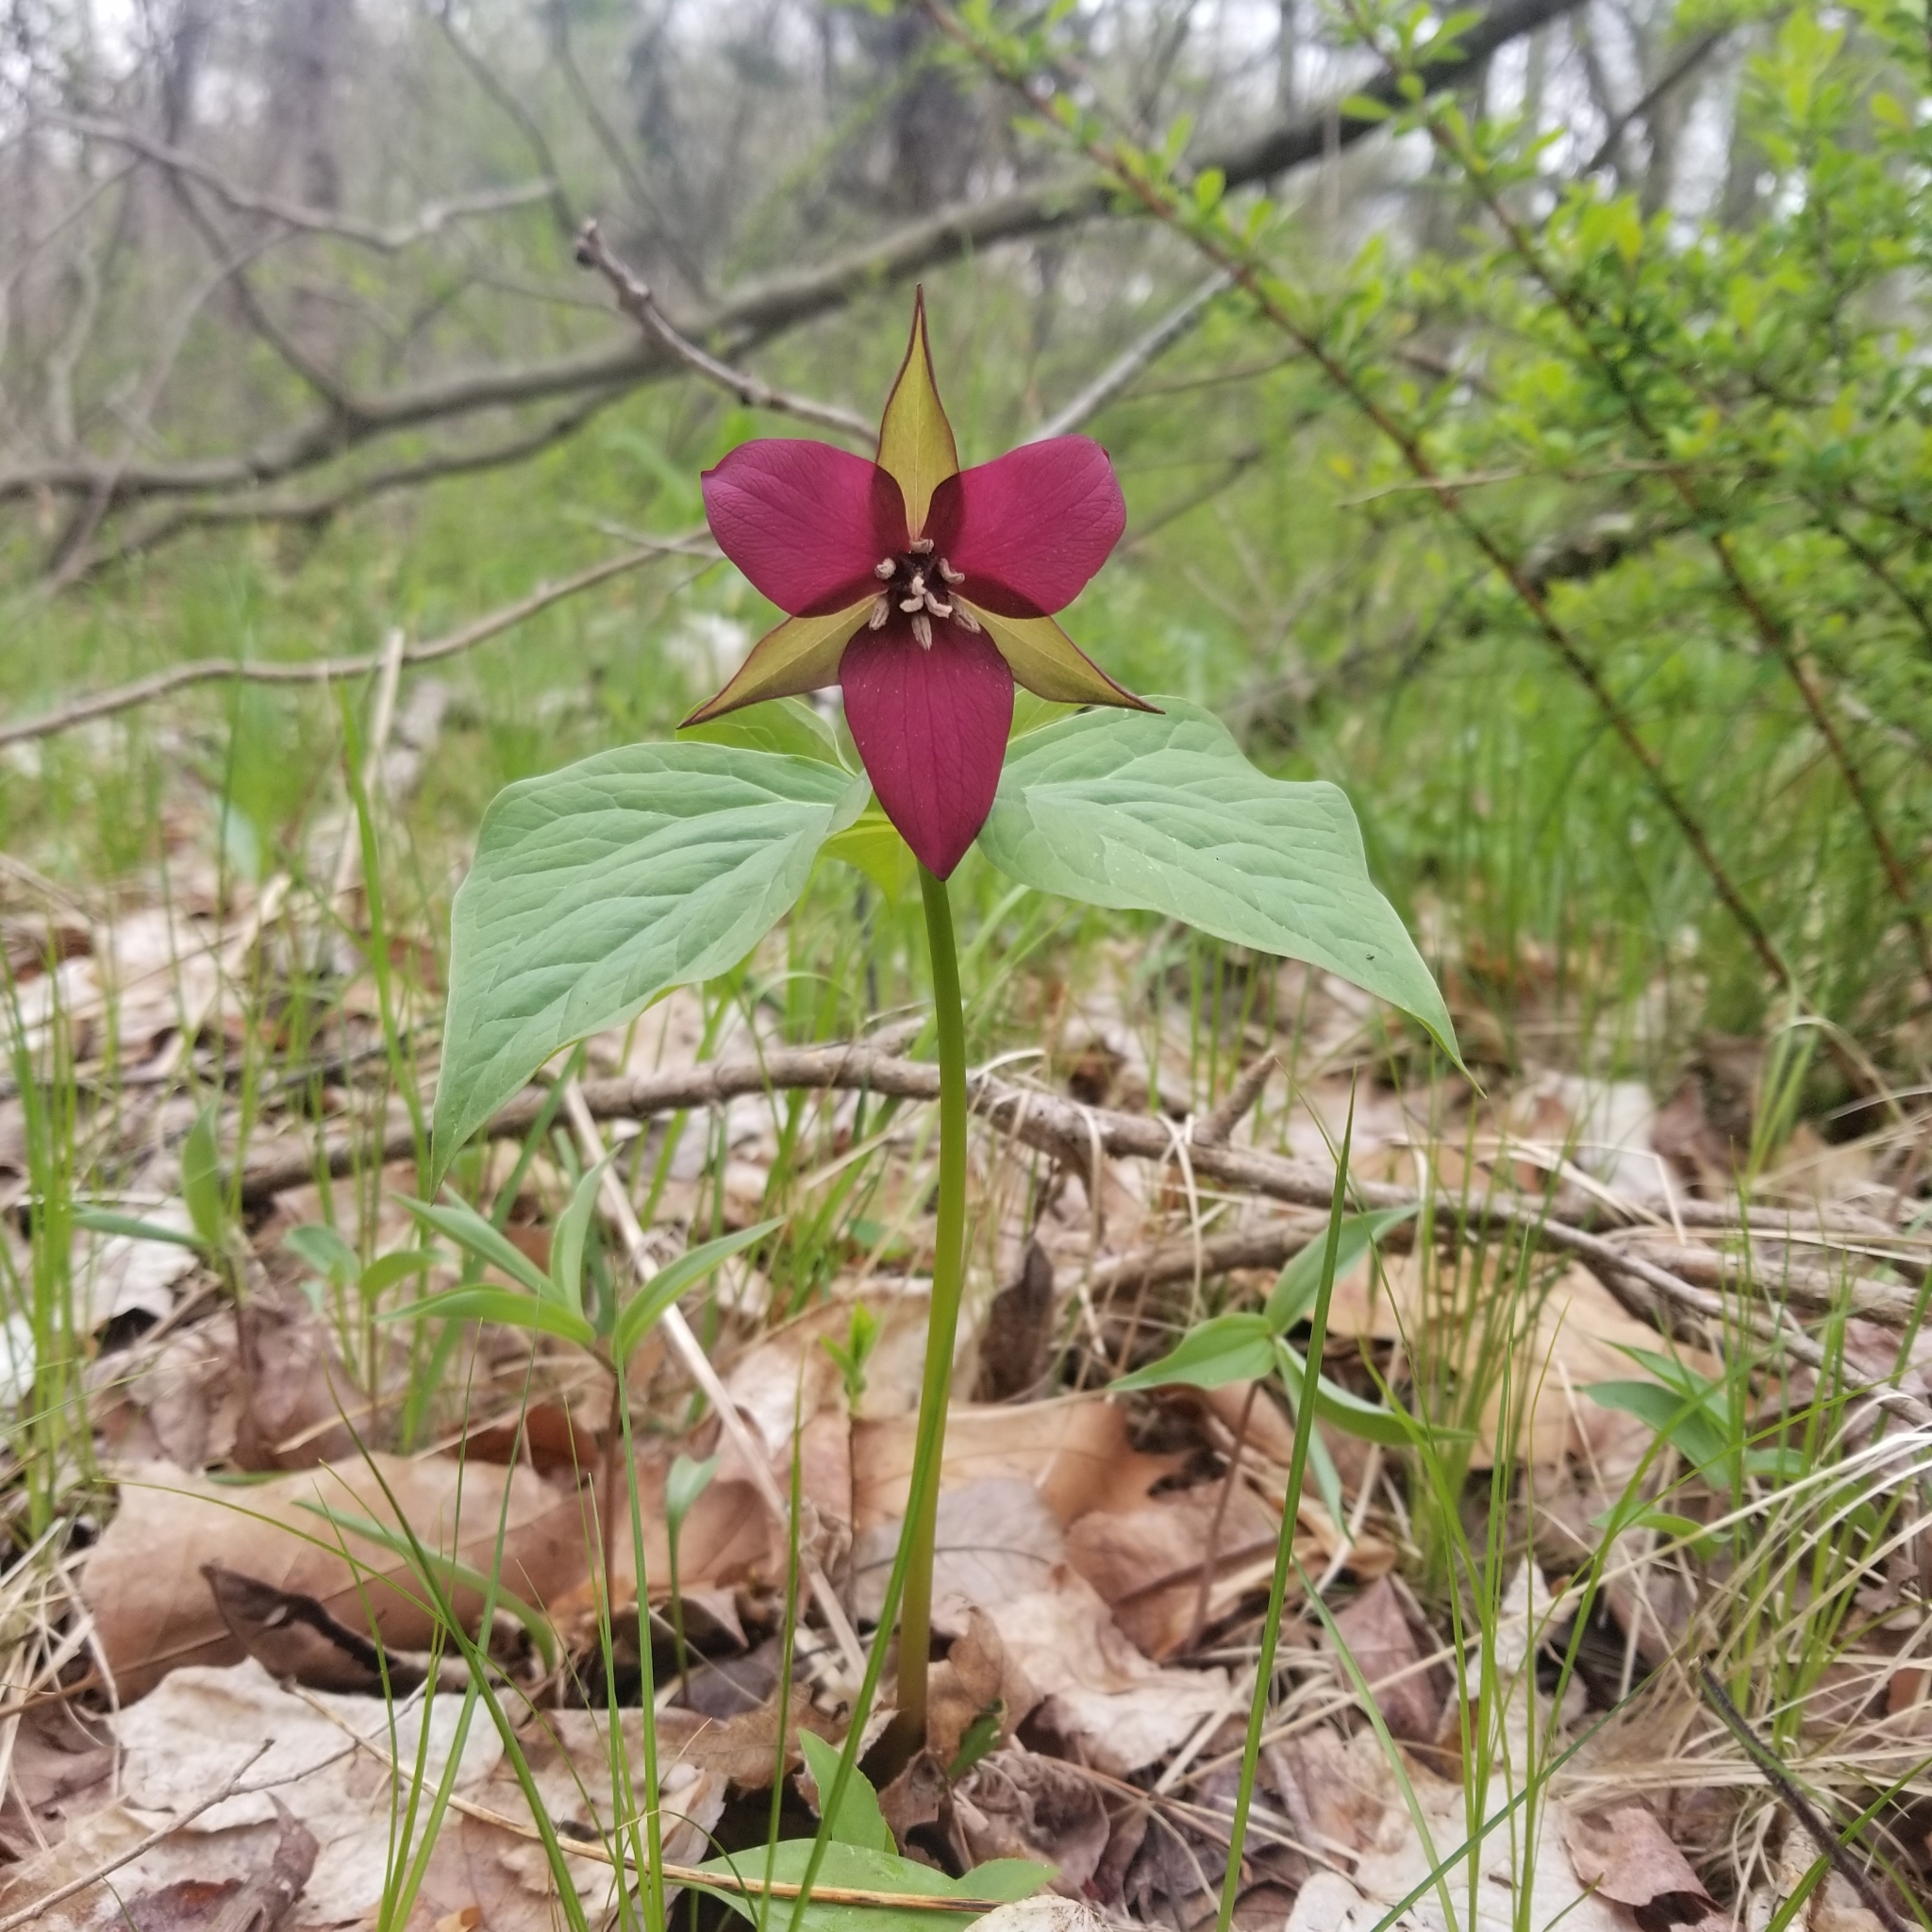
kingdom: Plantae
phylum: Tracheophyta
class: Liliopsida
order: Liliales
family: Melanthiaceae
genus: Trillium
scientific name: Trillium erectum
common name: Purple trillium
